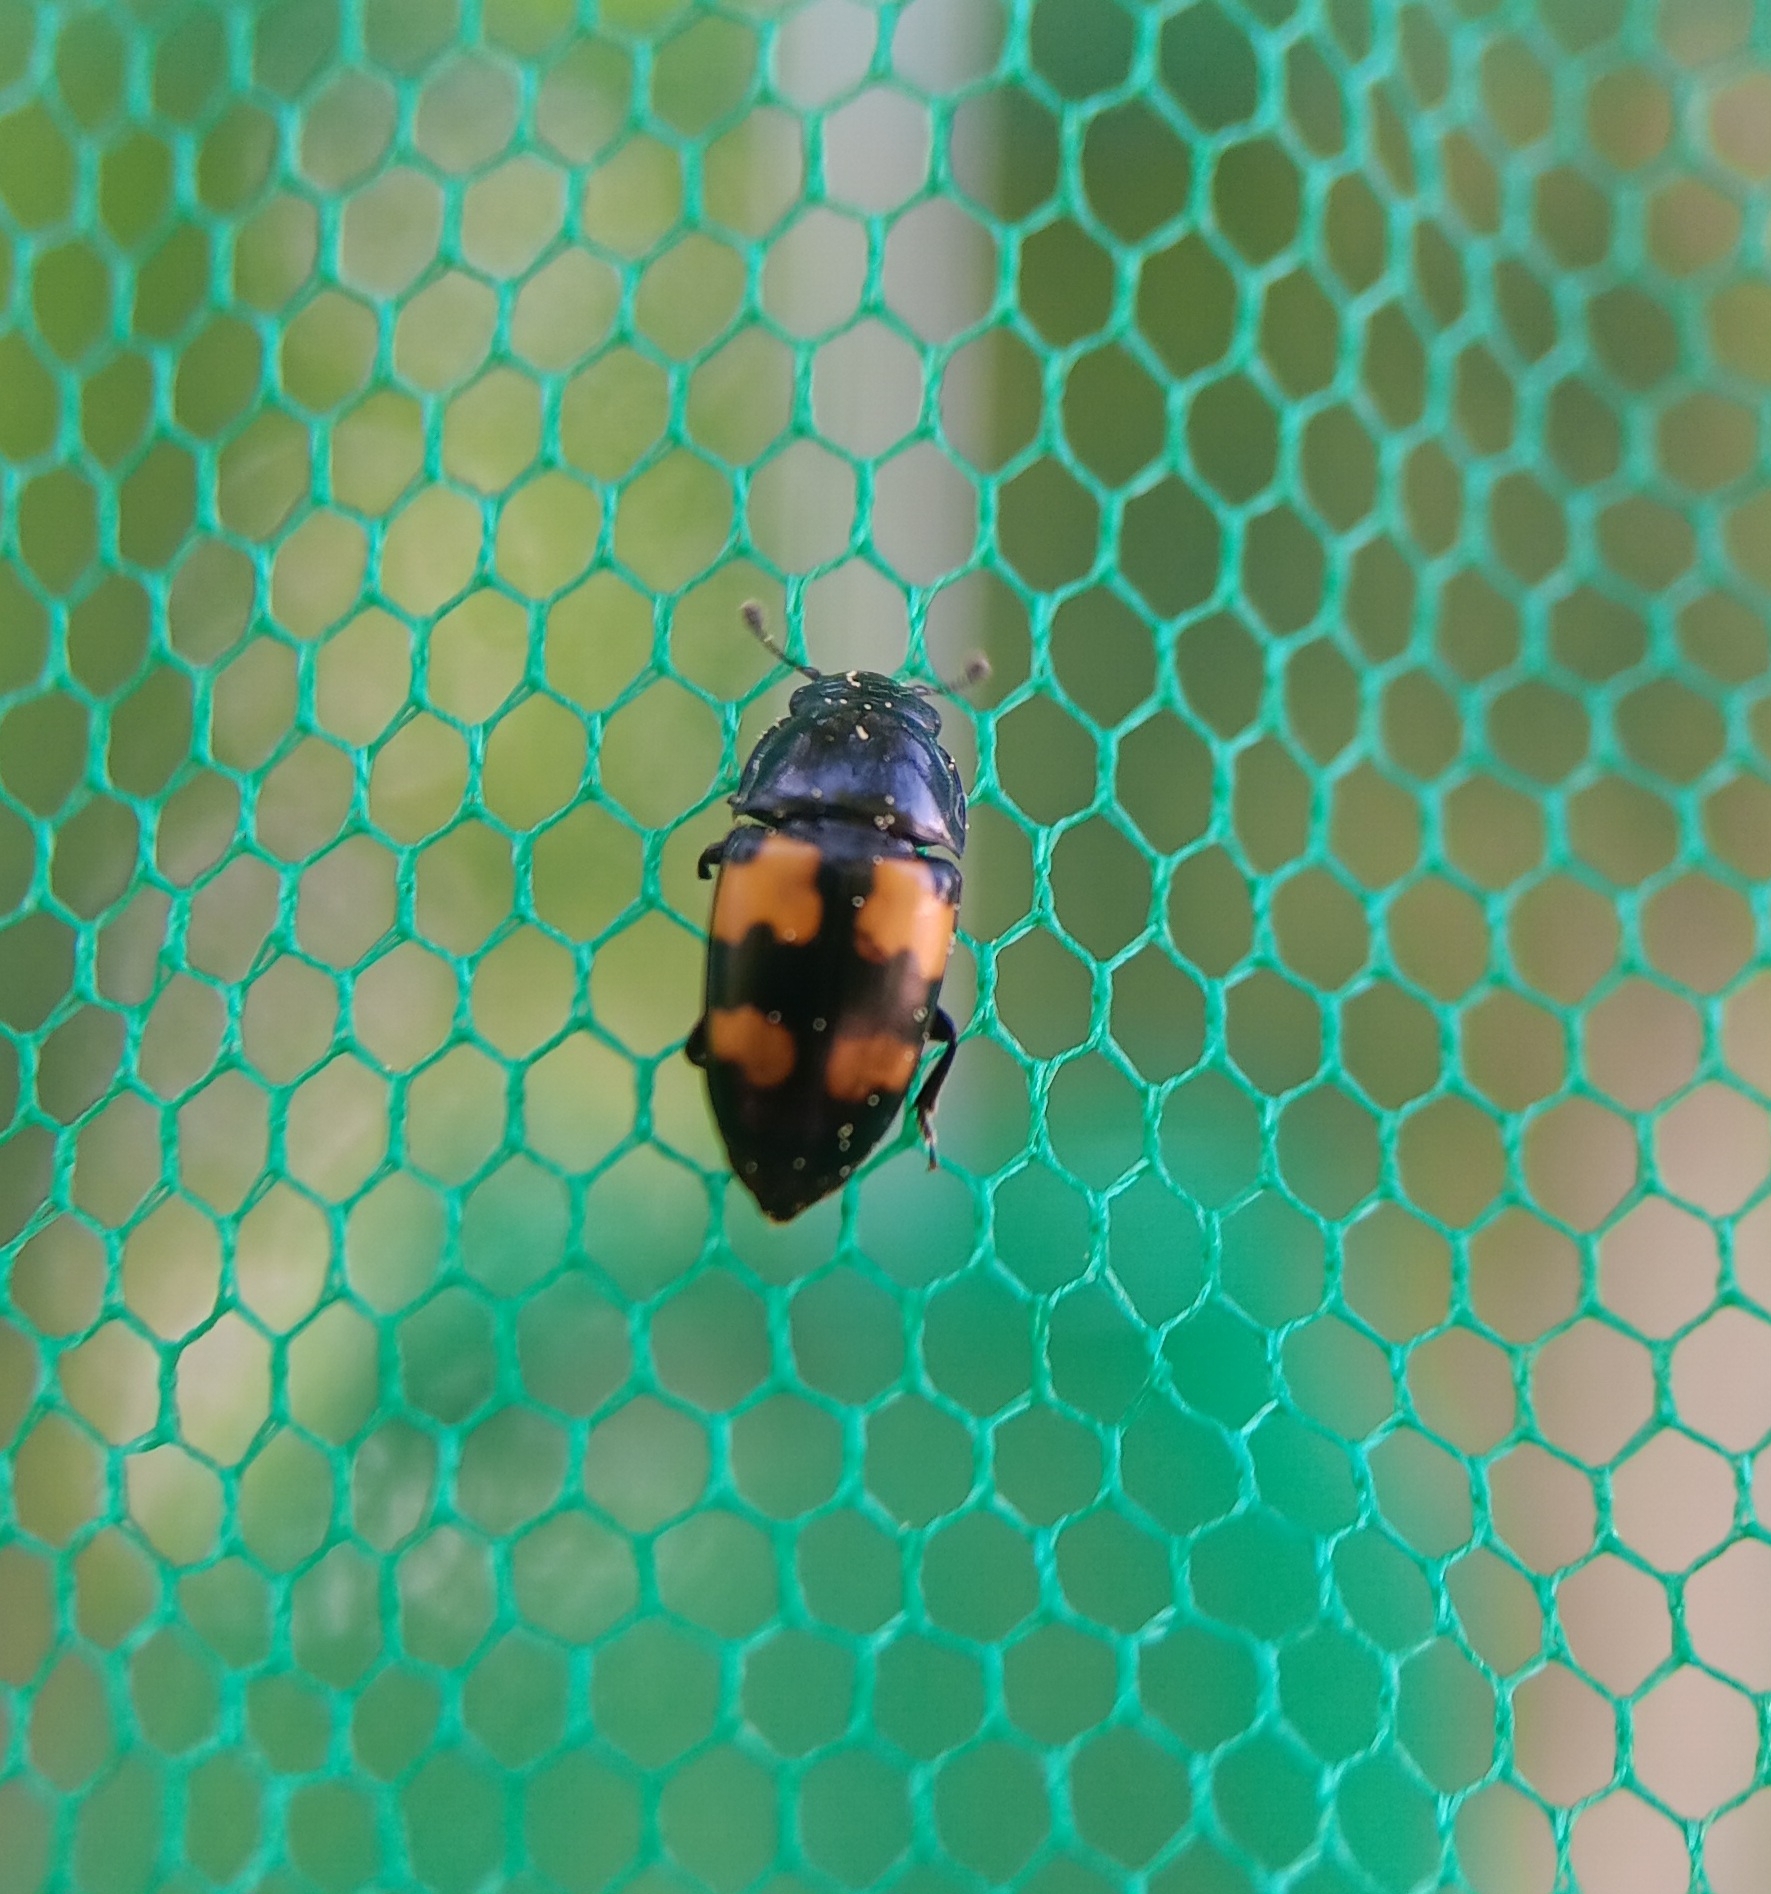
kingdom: Animalia
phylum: Arthropoda
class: Insecta
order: Coleoptera
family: Nitidulidae
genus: Glischrochilus
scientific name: Glischrochilus fasciatus
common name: Picnic beetle
